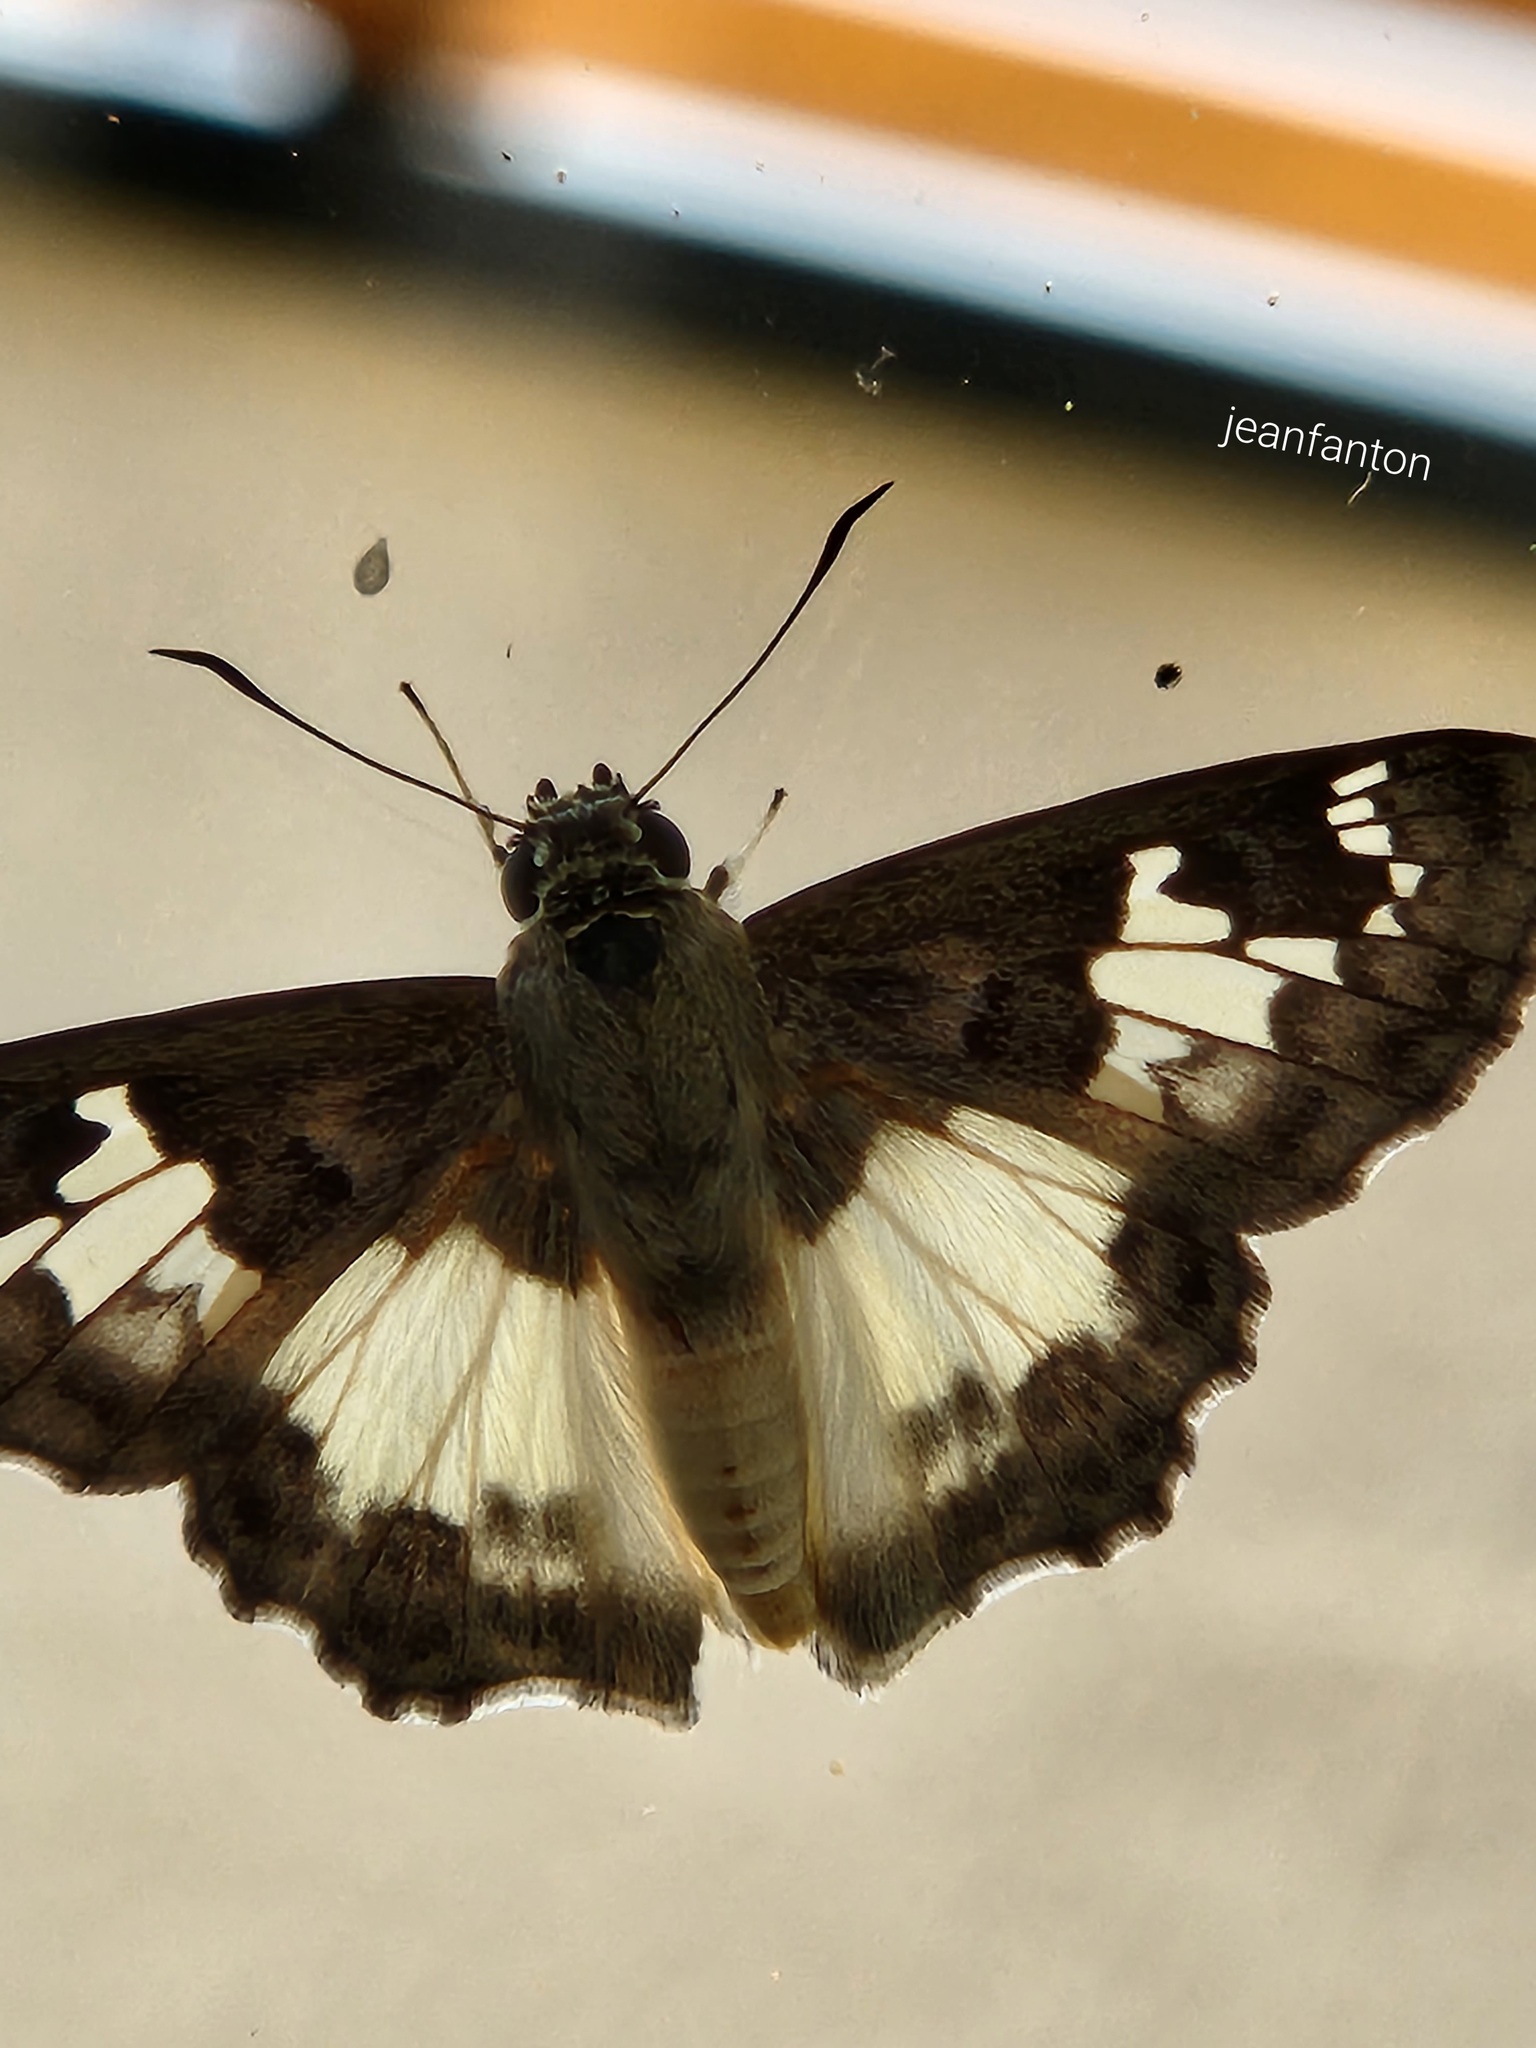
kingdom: Animalia
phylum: Arthropoda
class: Insecta
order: Lepidoptera
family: Hesperiidae
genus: Clito
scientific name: Clito sompa
